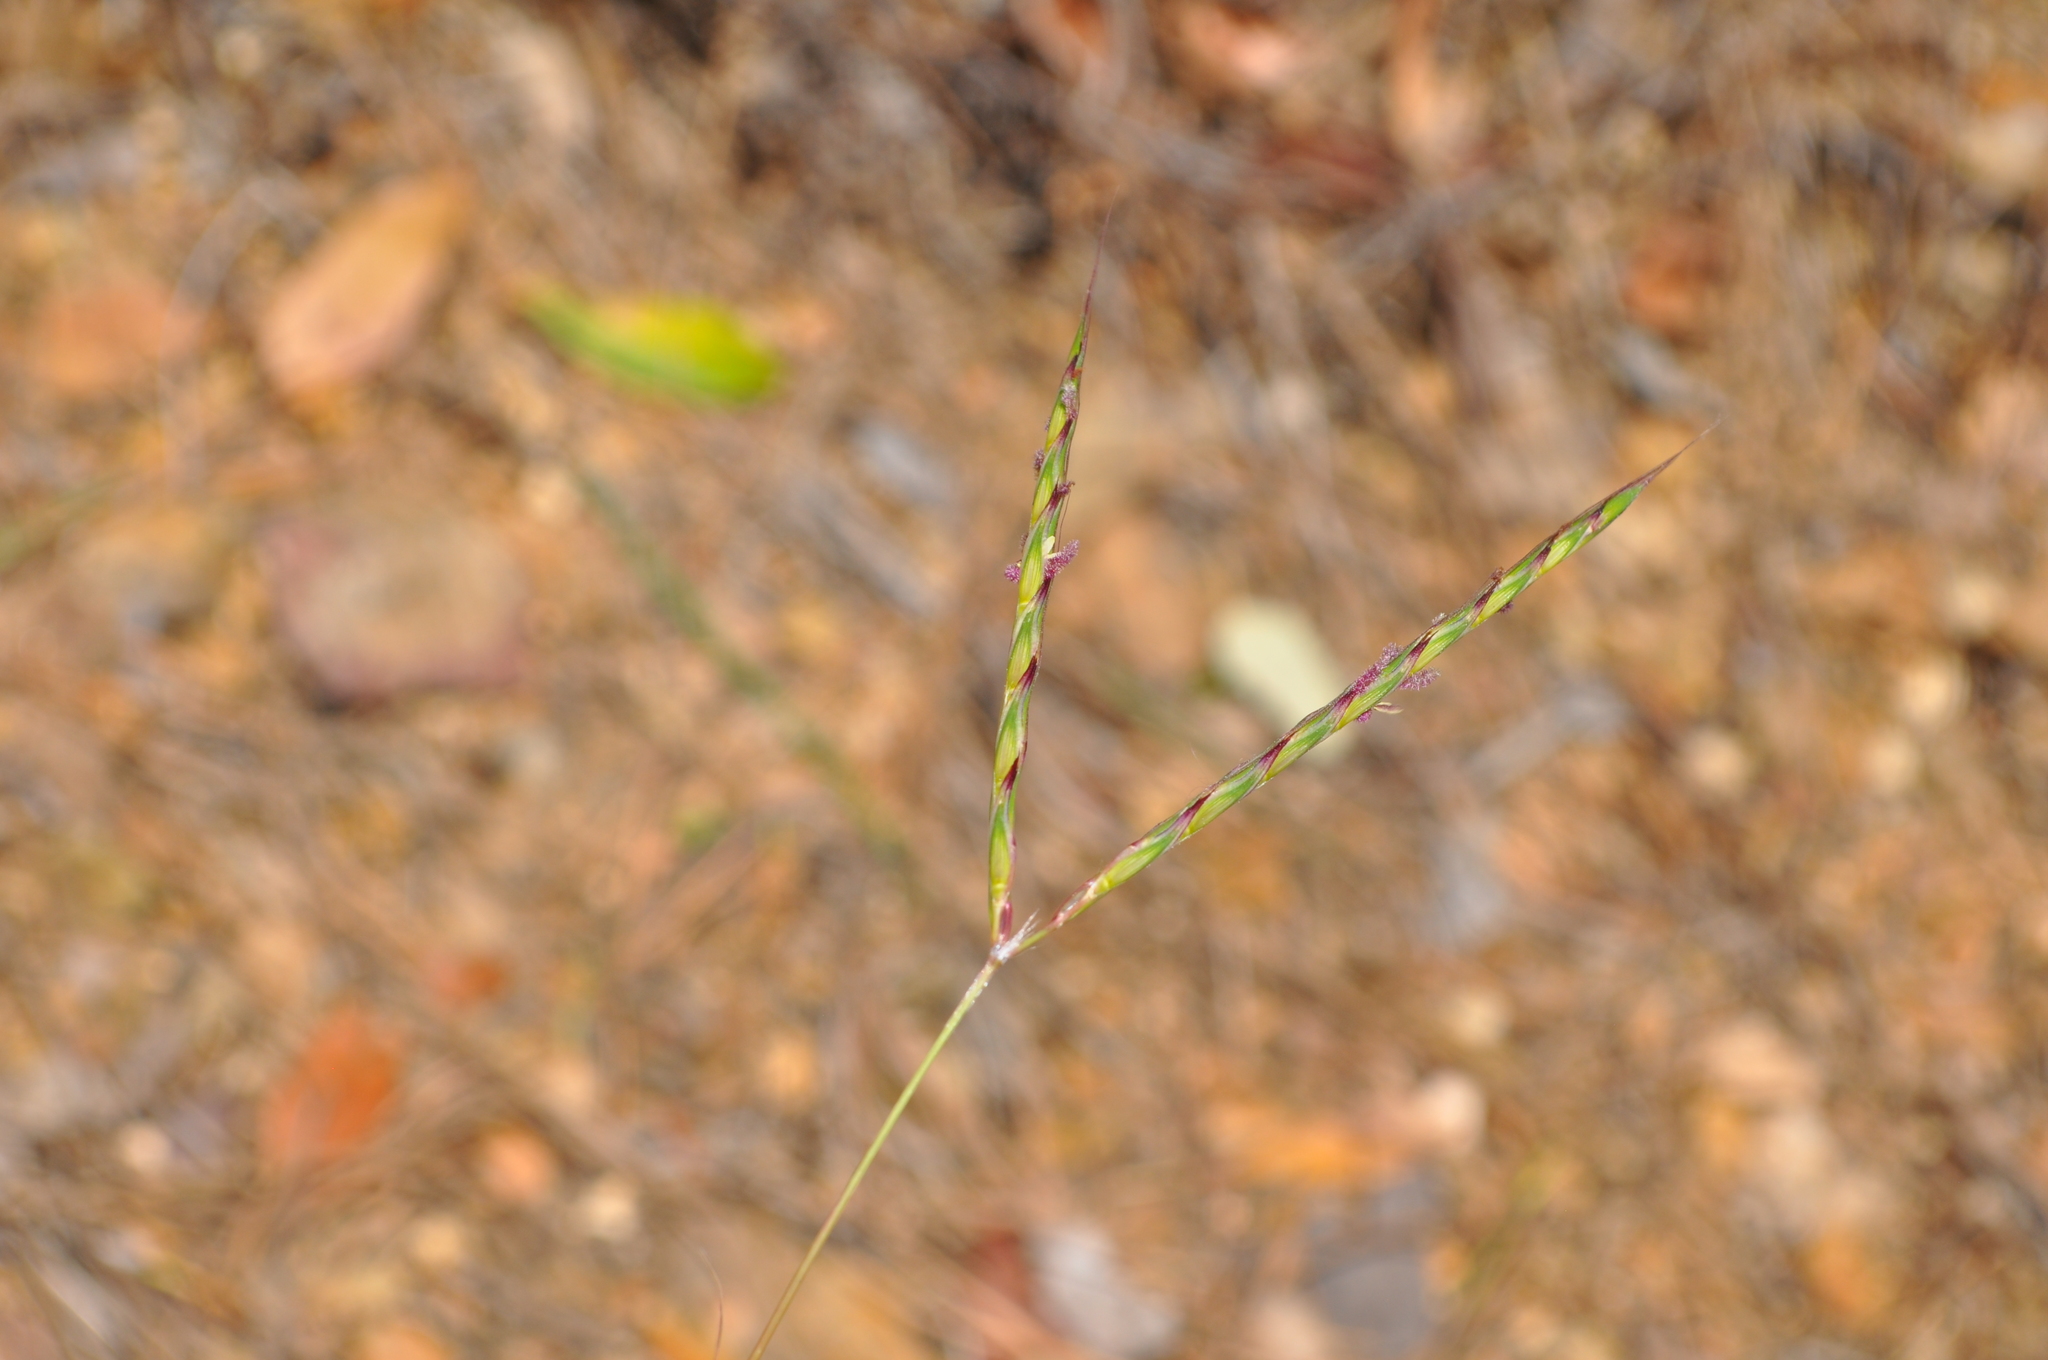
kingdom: Plantae
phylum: Tracheophyta
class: Liliopsida
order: Poales
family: Poaceae
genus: Andropogon
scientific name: Andropogon distachyos
